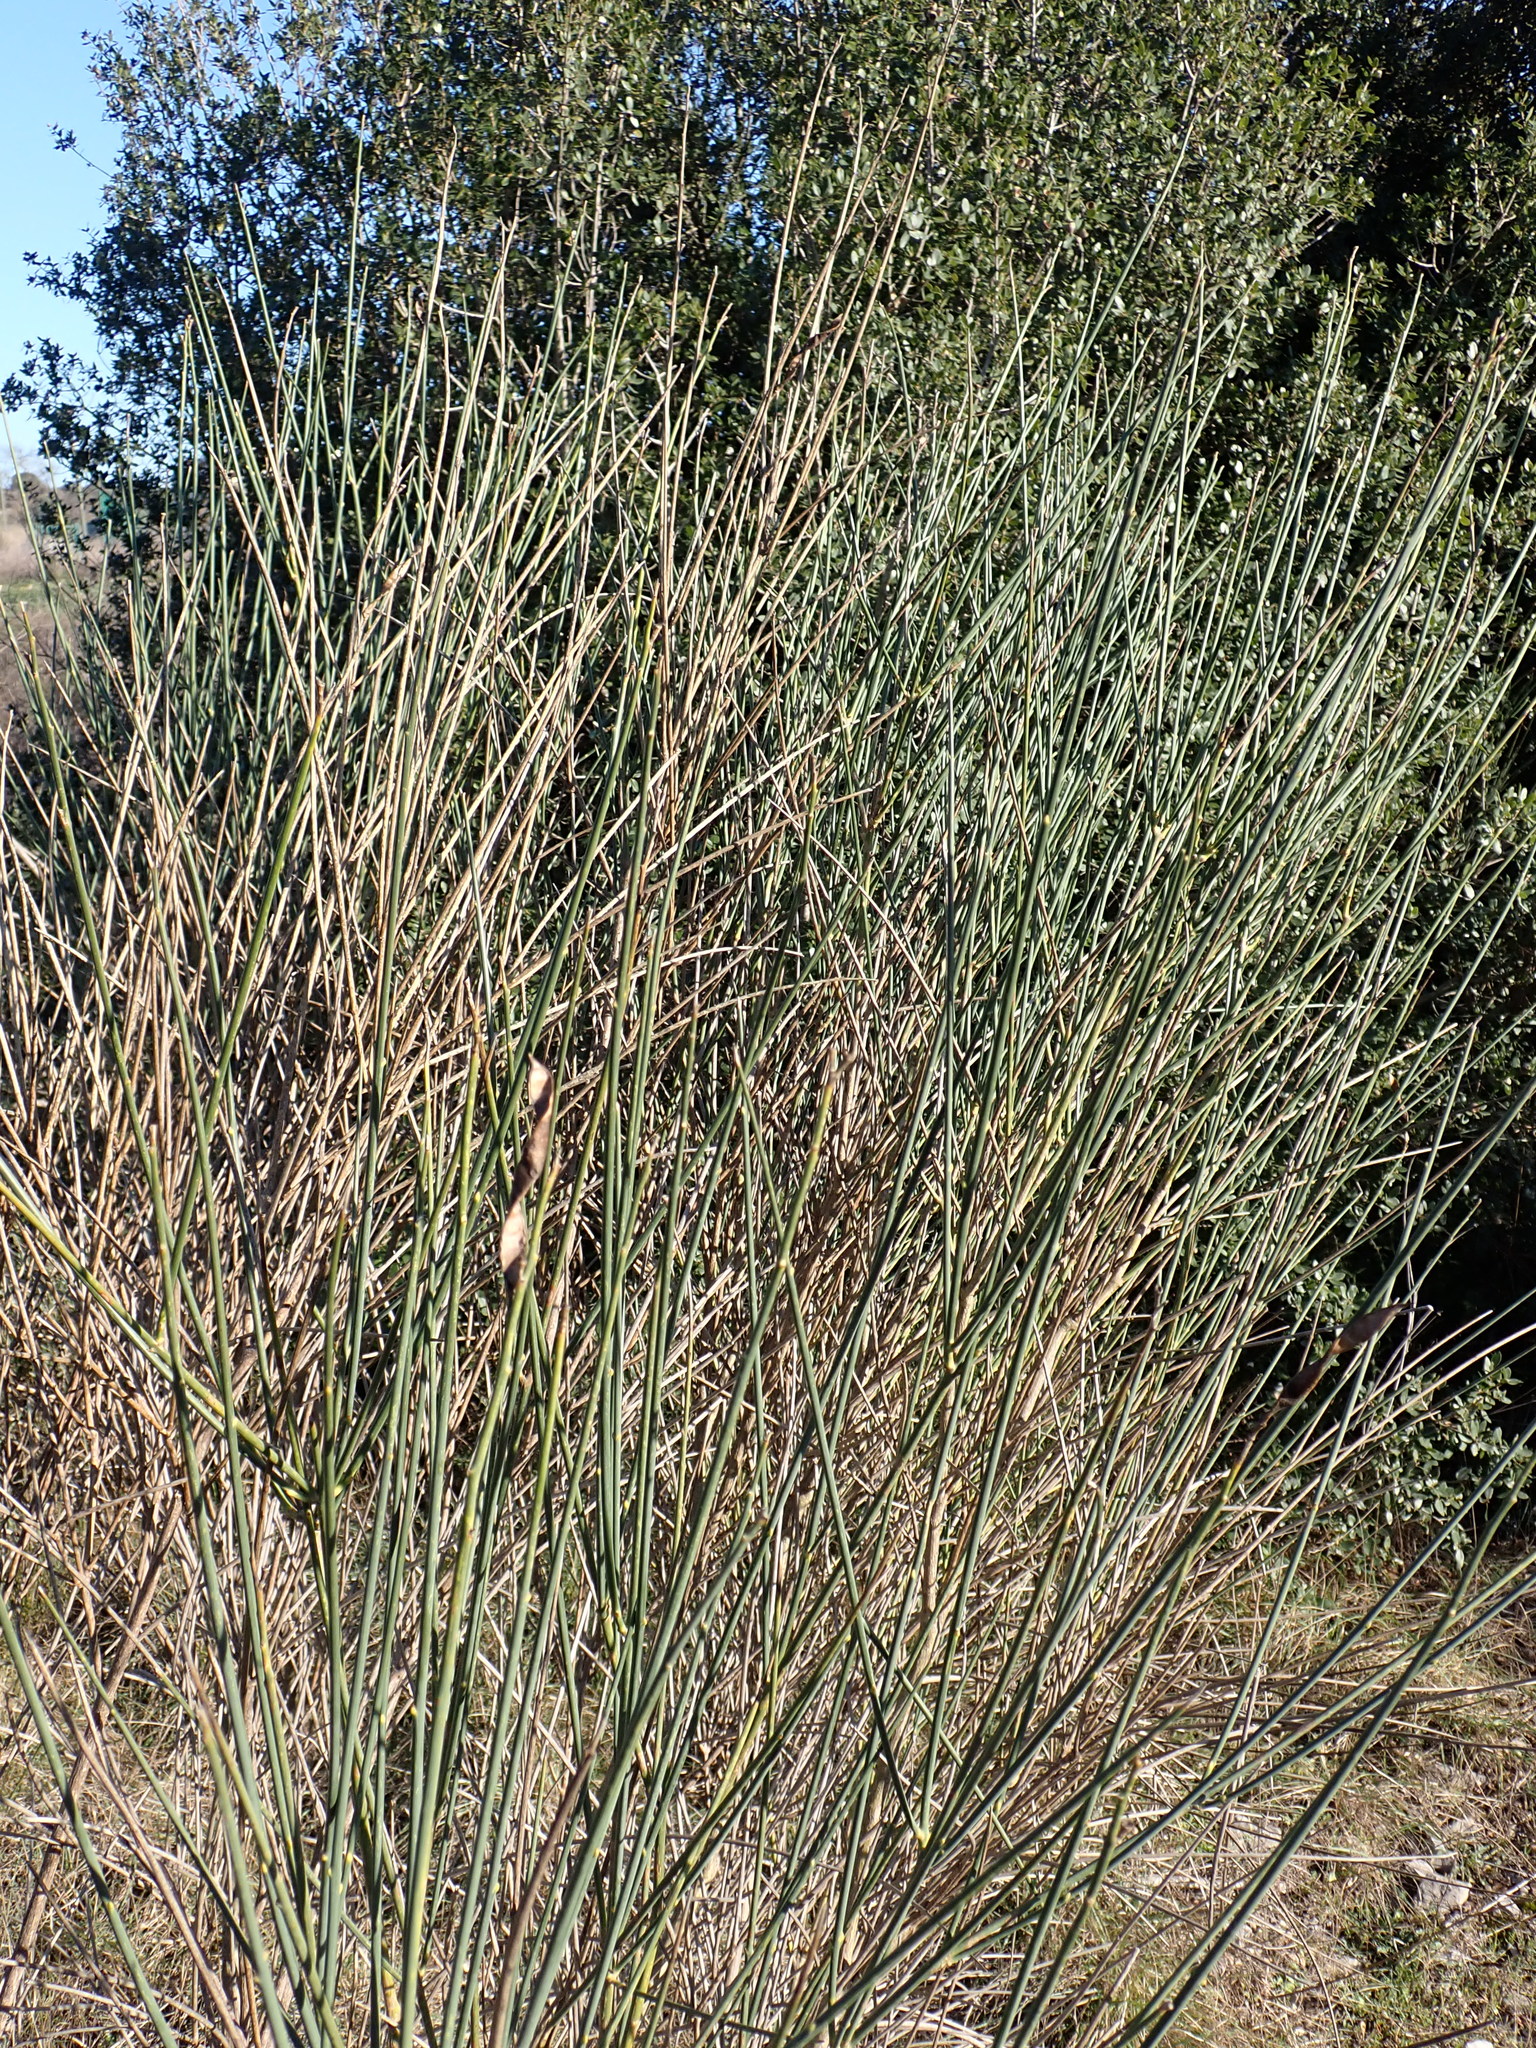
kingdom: Plantae
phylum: Tracheophyta
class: Magnoliopsida
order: Fabales
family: Fabaceae
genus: Spartium
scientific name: Spartium junceum
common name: Spanish broom
